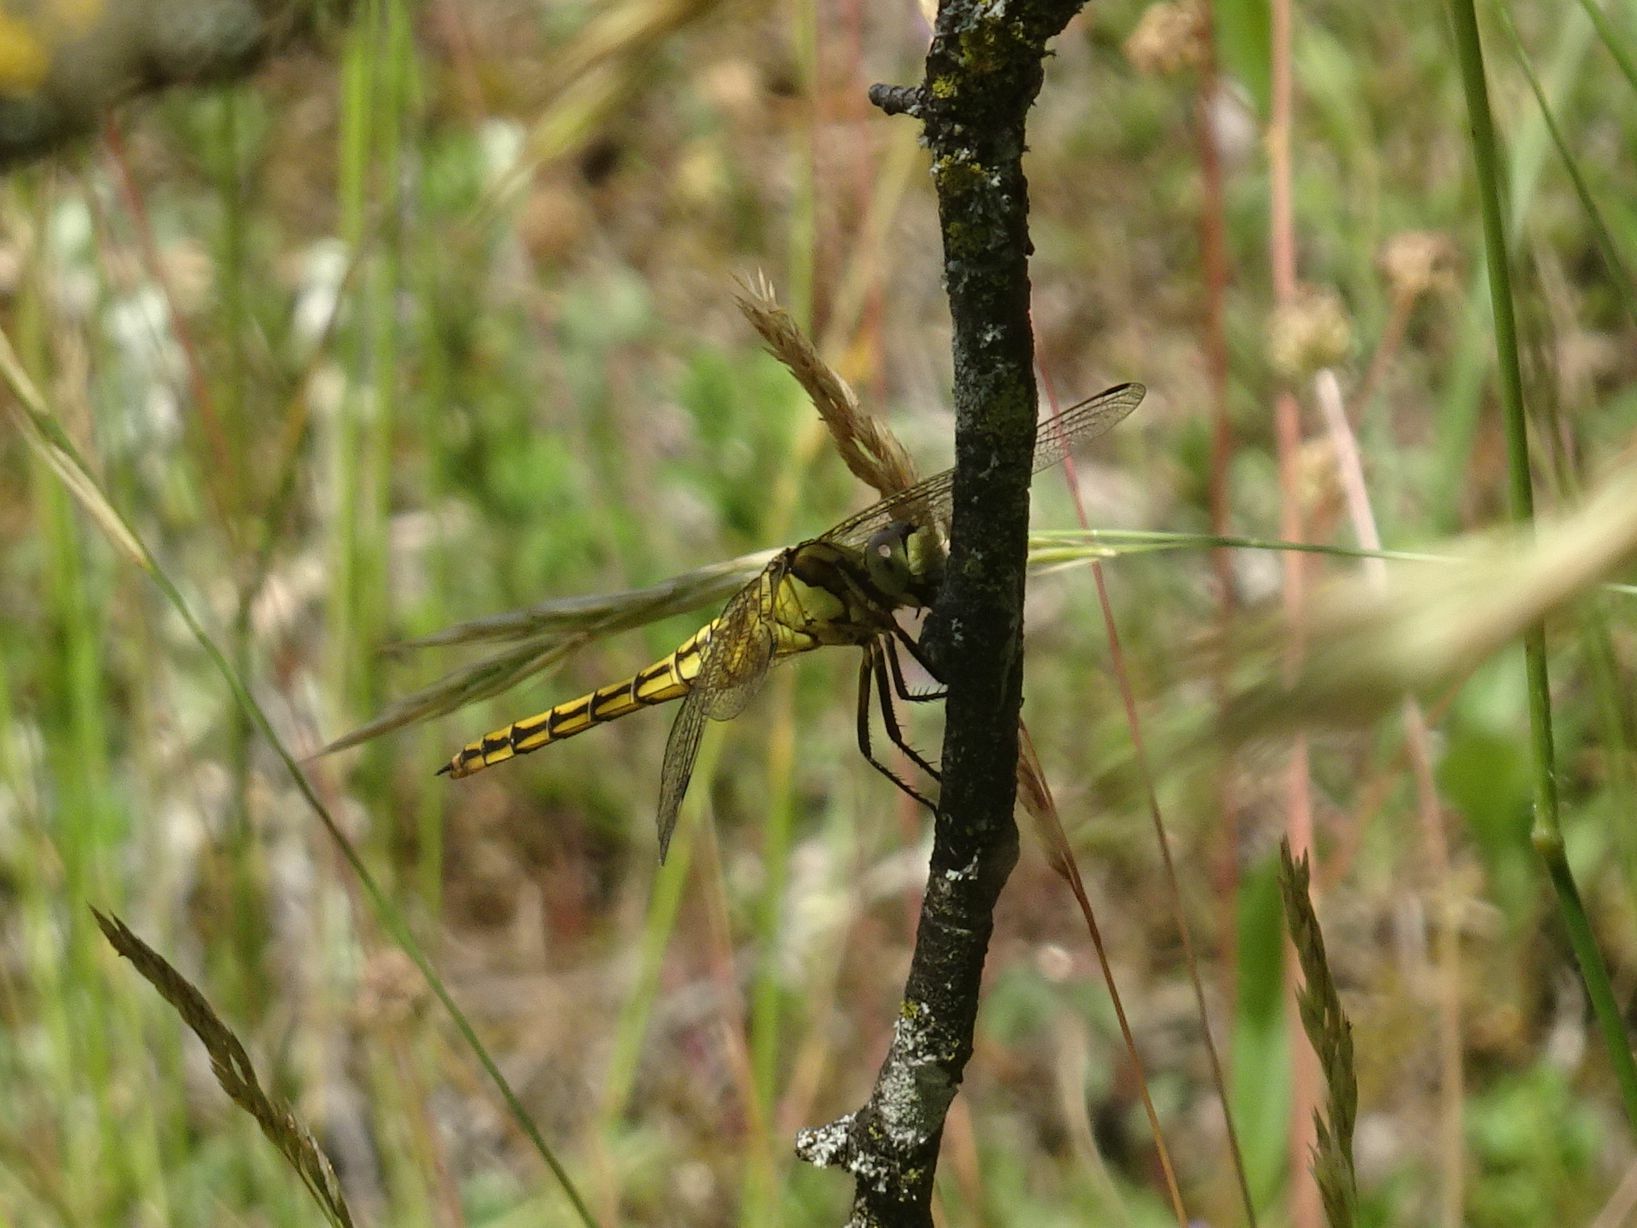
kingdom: Animalia
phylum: Arthropoda
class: Insecta
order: Odonata
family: Libellulidae
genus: Orthetrum
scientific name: Orthetrum cancellatum
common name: Black-tailed skimmer
